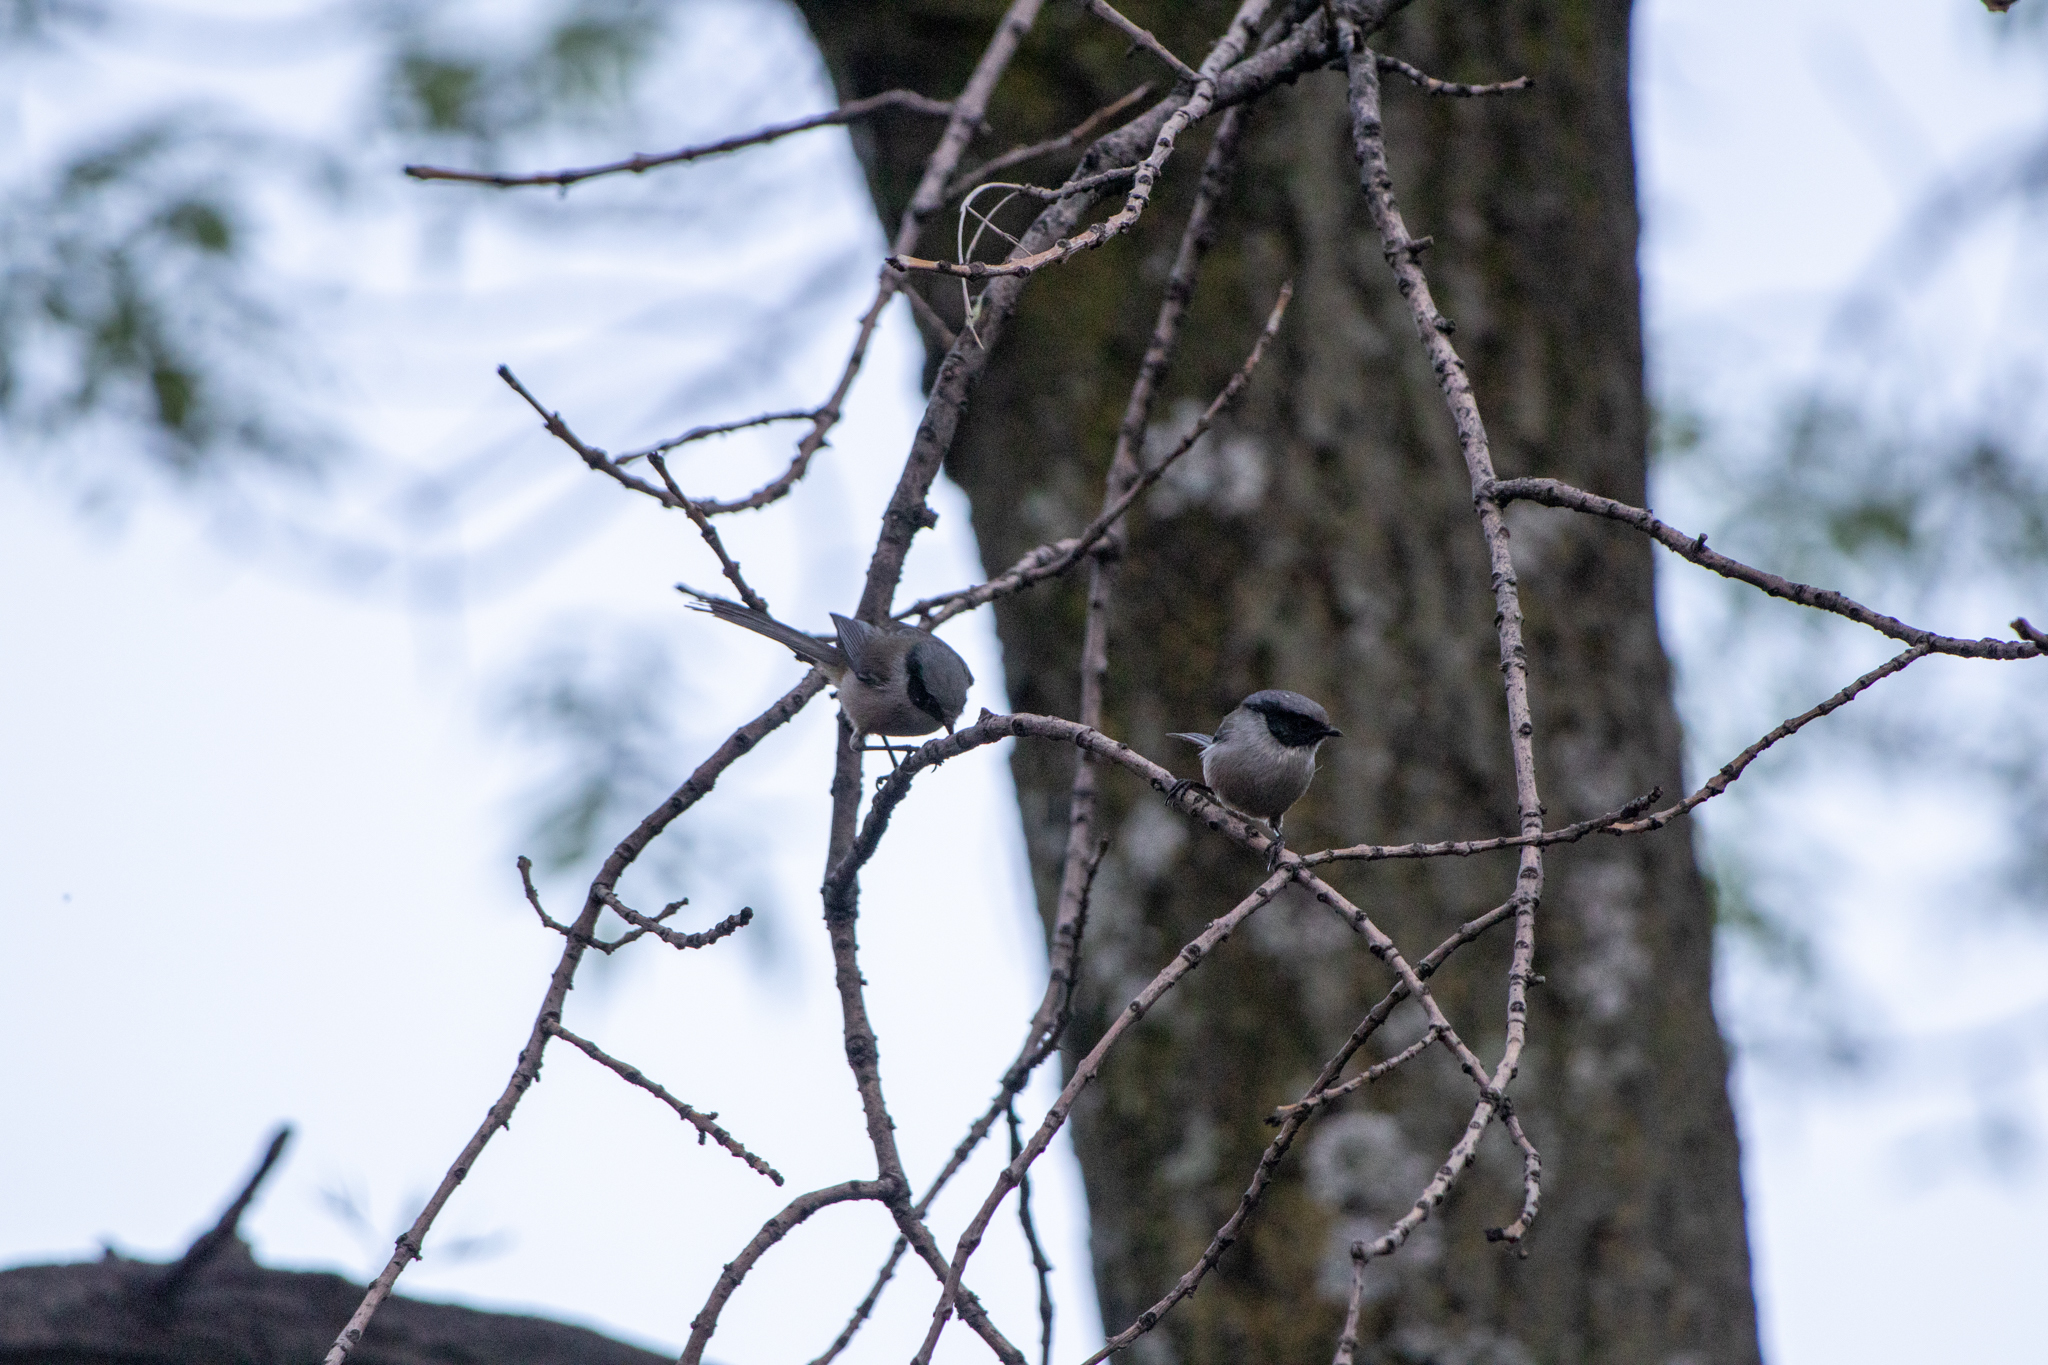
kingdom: Animalia
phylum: Chordata
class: Aves
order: Passeriformes
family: Aegithalidae
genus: Psaltriparus
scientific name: Psaltriparus minimus
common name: American bushtit
